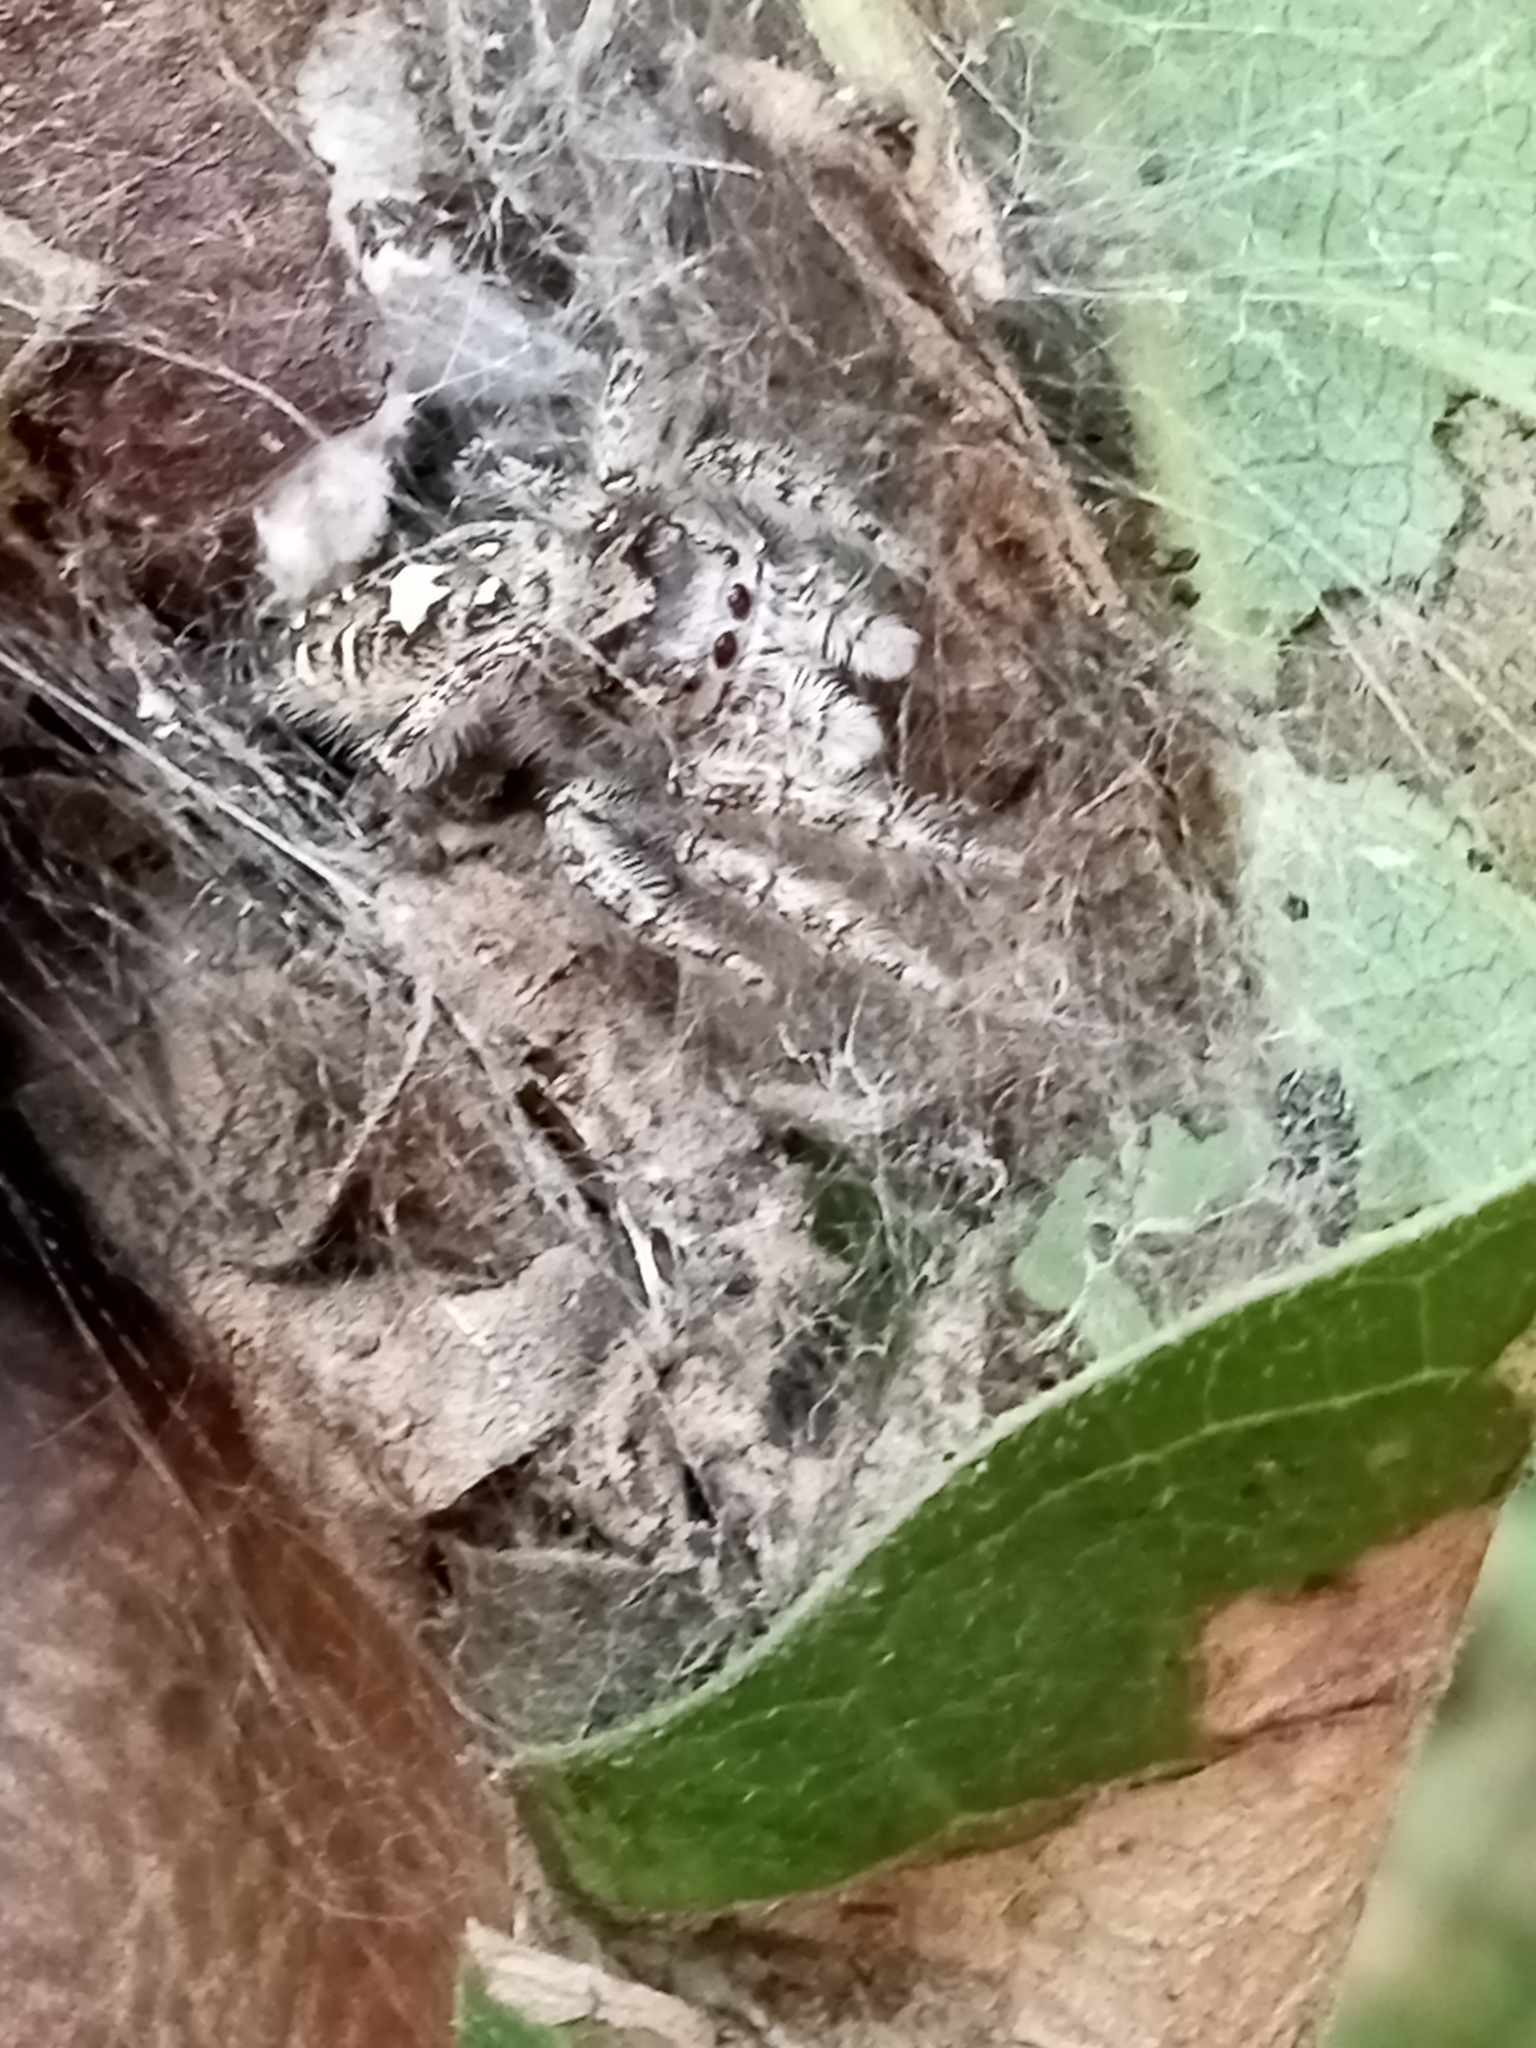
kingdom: Animalia
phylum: Arthropoda
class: Arachnida
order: Araneae
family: Salticidae
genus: Phidippus
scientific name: Phidippus putnami
